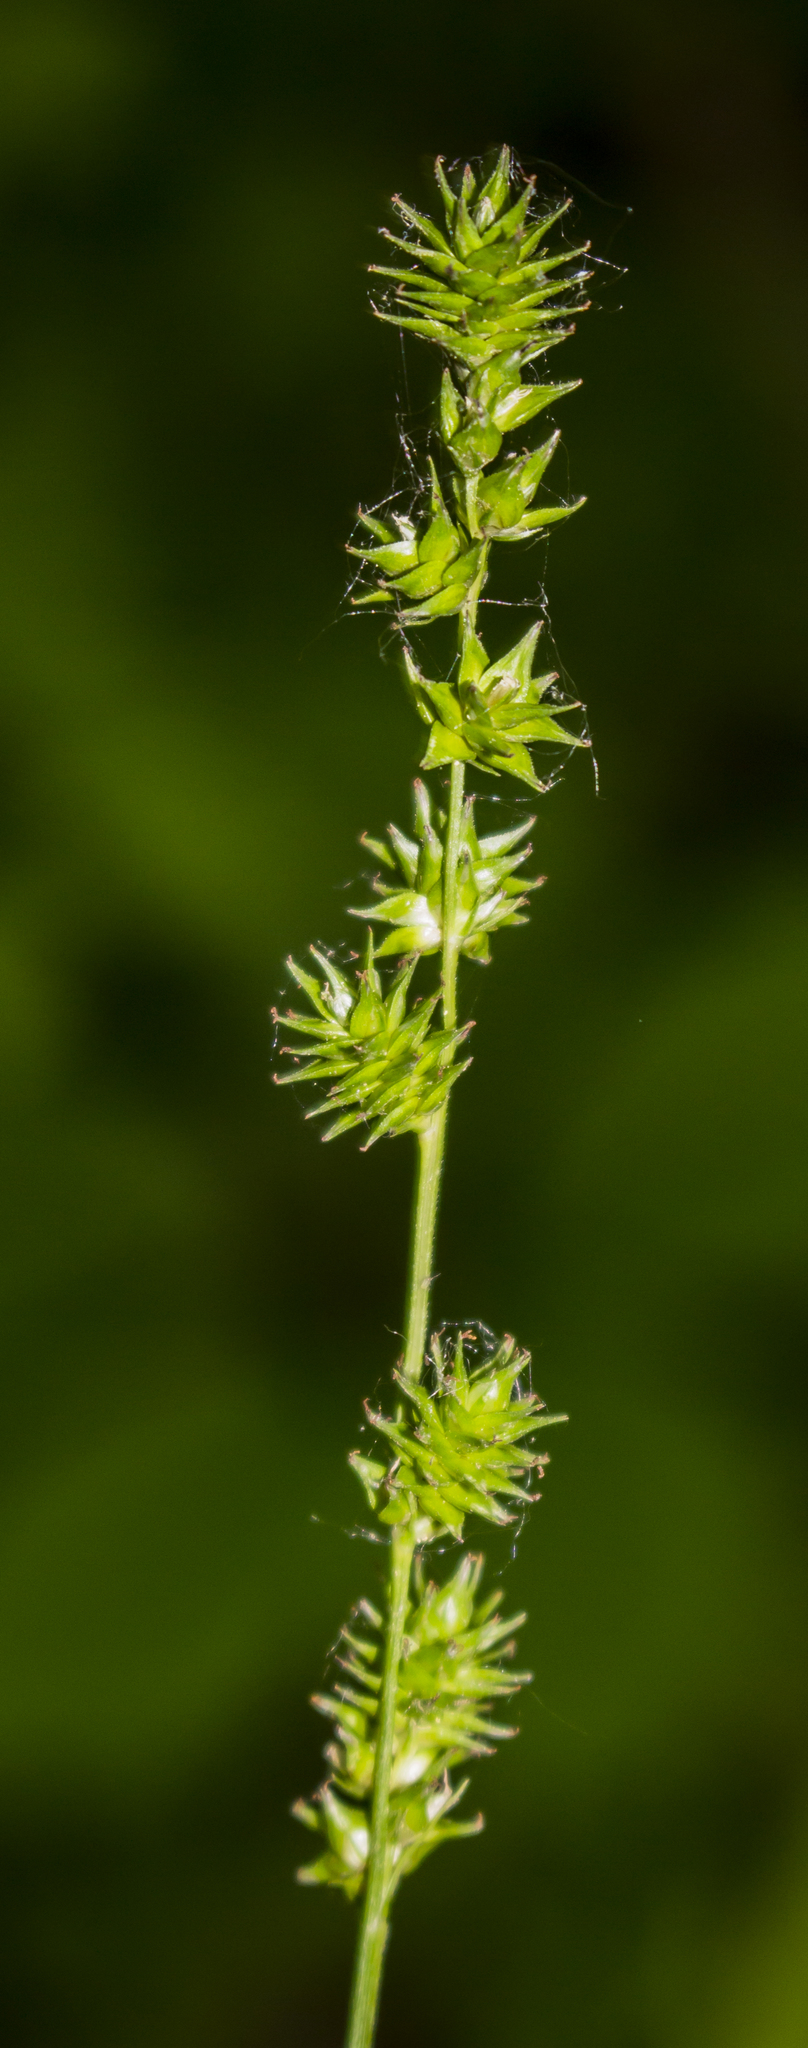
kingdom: Plantae
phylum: Tracheophyta
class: Liliopsida
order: Poales
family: Cyperaceae
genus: Carex
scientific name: Carex sparganioides
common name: Burreed sedge
